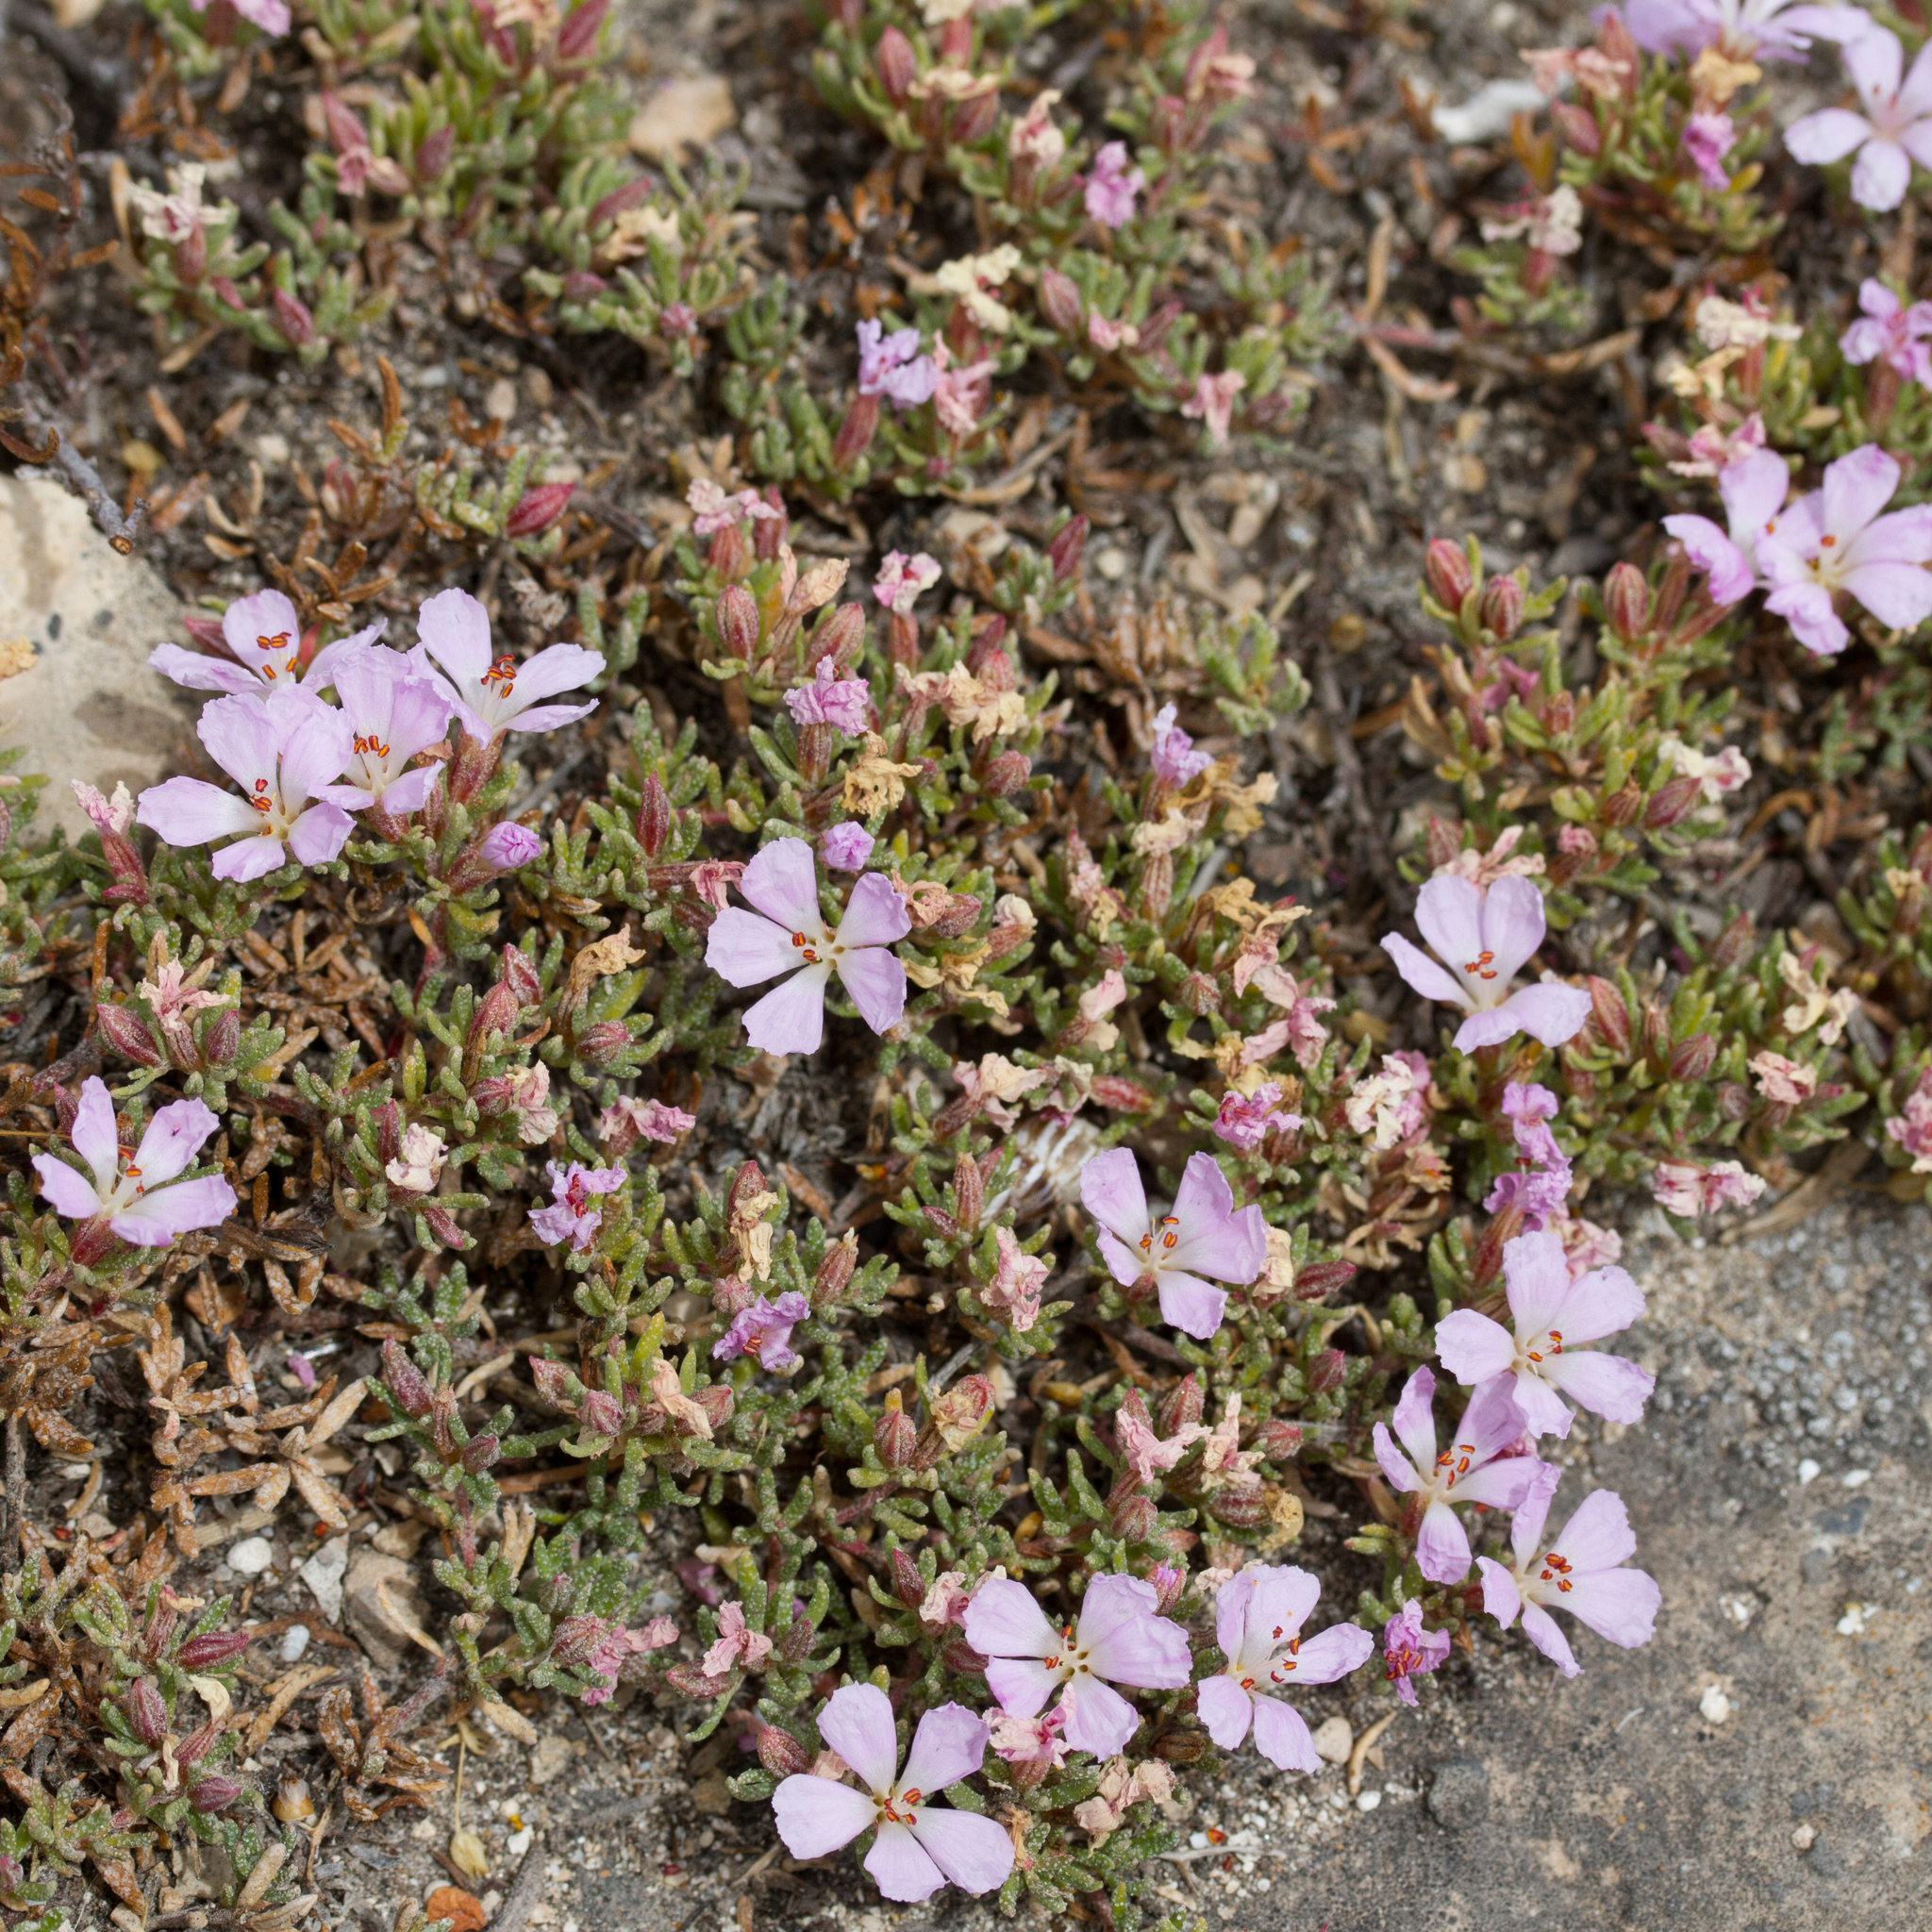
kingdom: Plantae
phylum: Tracheophyta
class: Magnoliopsida
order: Caryophyllales
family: Frankeniaceae
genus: Frankenia
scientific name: Frankenia pauciflora
